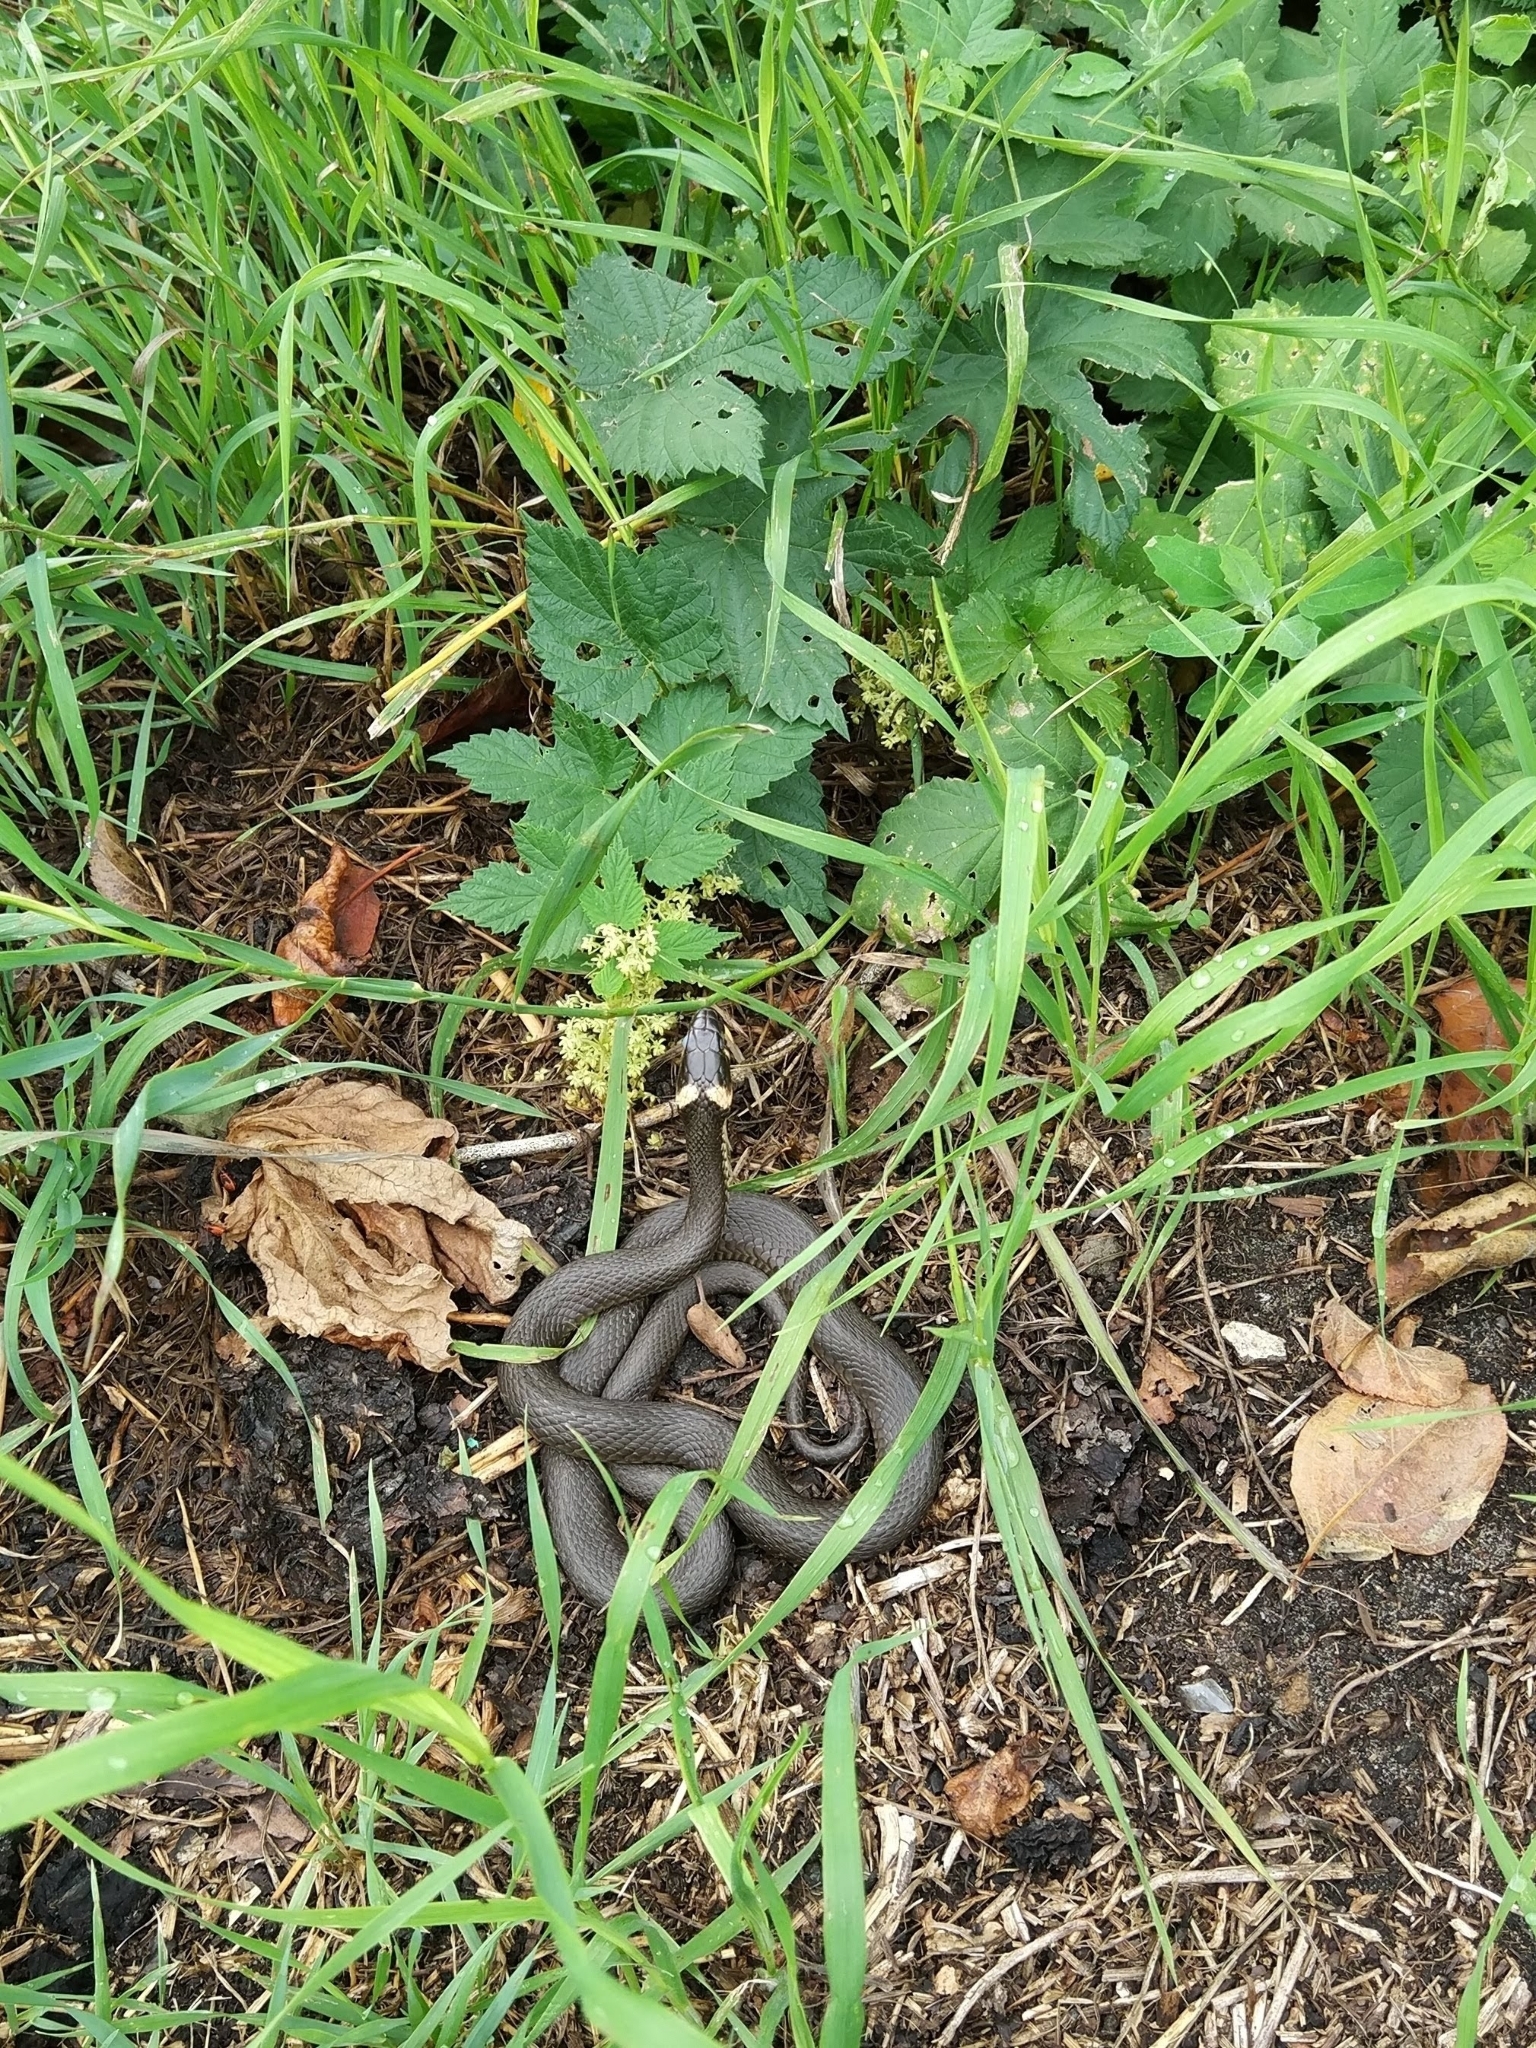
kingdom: Animalia
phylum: Chordata
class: Squamata
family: Colubridae
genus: Natrix
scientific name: Natrix natrix
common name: Grass snake
